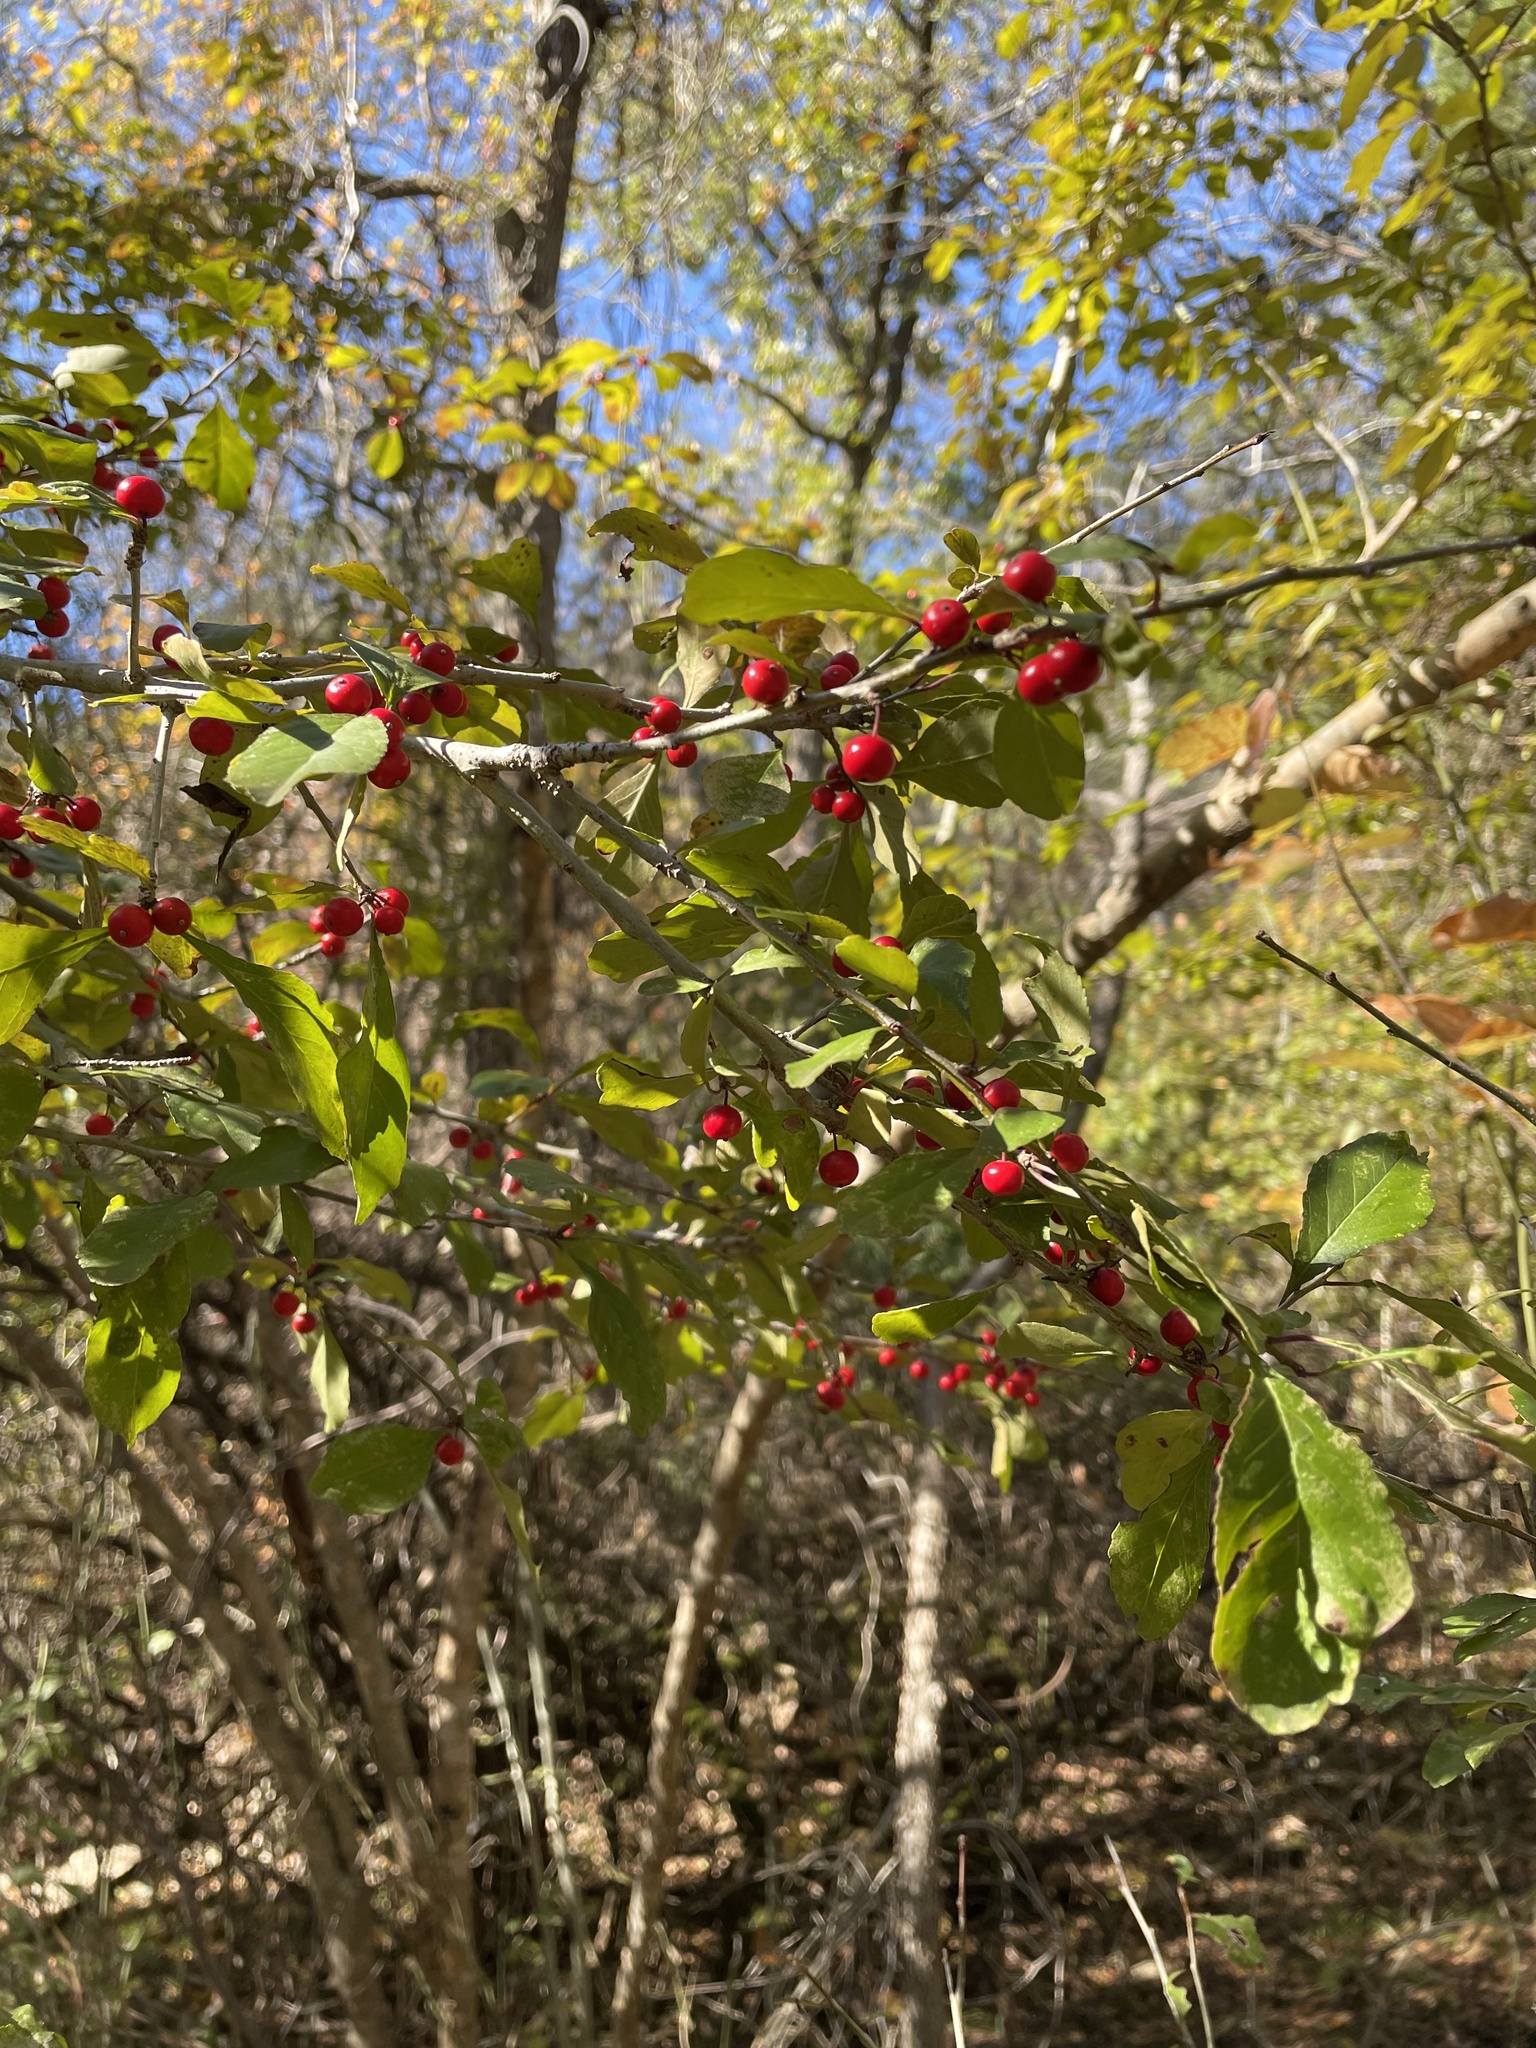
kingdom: Plantae
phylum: Tracheophyta
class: Magnoliopsida
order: Aquifoliales
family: Aquifoliaceae
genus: Ilex
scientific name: Ilex decidua
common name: Possum-haw
